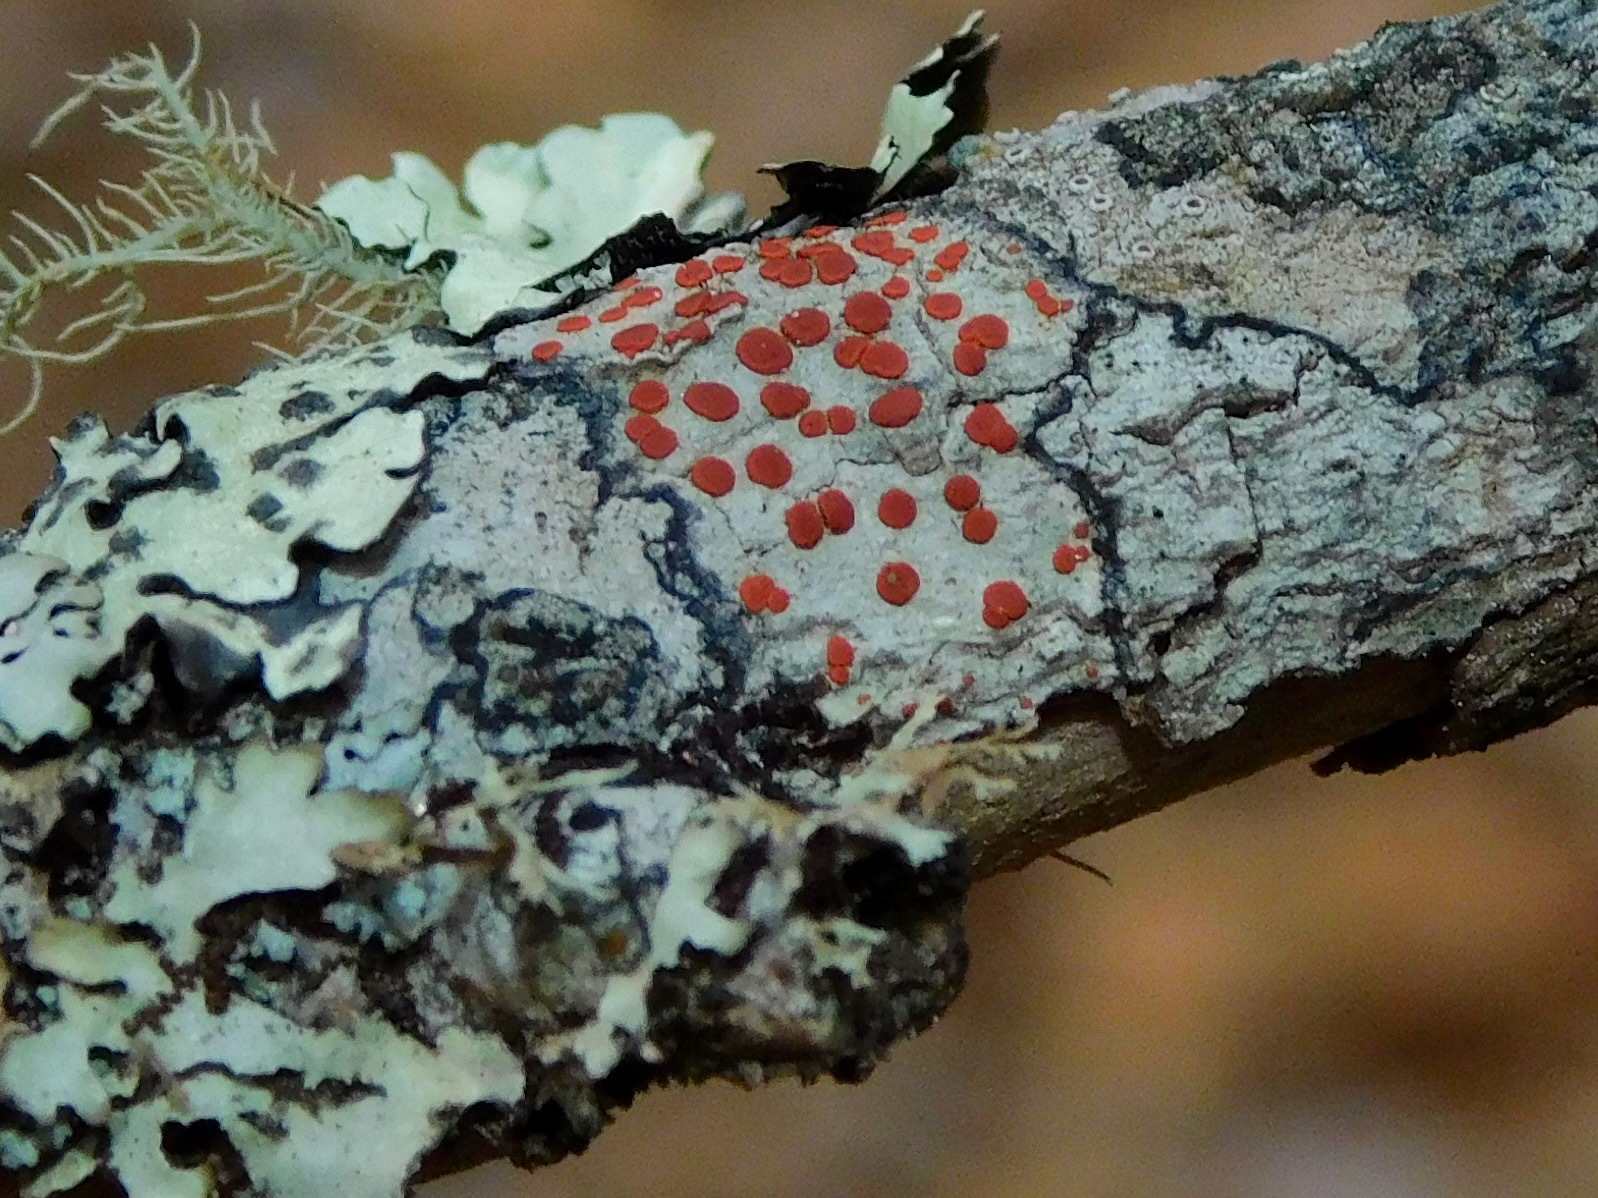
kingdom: Fungi
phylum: Ascomycota
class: Lecanoromycetes
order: Lecanorales
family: Ramboldiaceae
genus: Ramboldia
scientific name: Ramboldia russula
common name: Red heads
